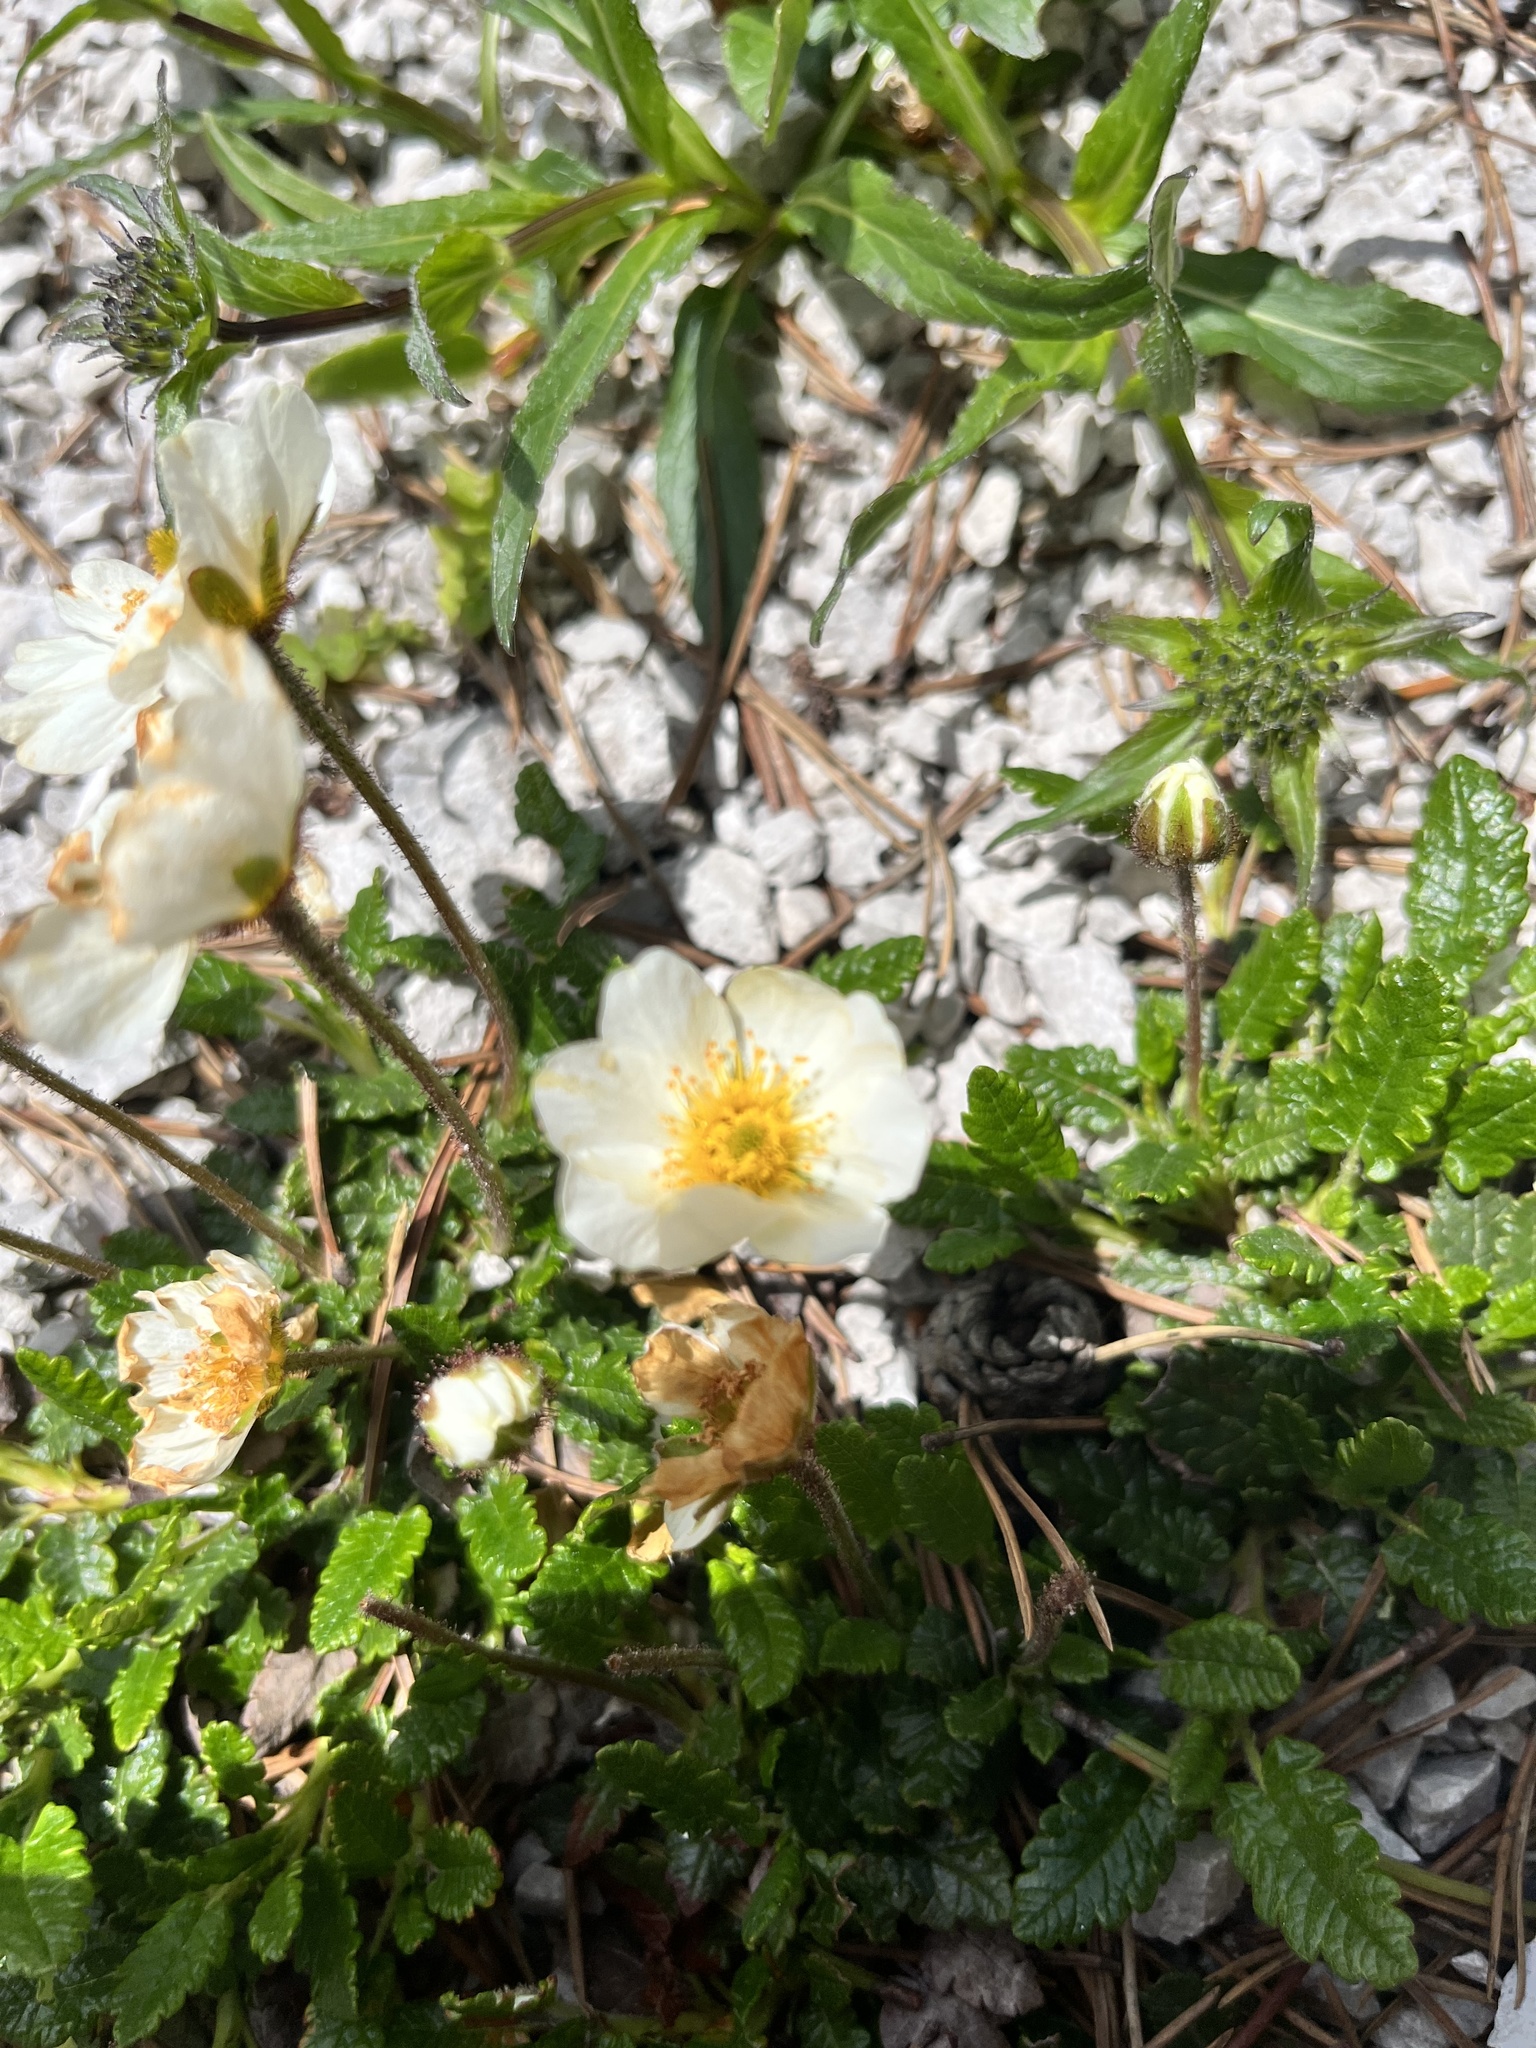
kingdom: Plantae
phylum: Tracheophyta
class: Magnoliopsida
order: Rosales
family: Rosaceae
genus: Dryas
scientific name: Dryas octopetala
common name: Eight-petal mountain-avens
